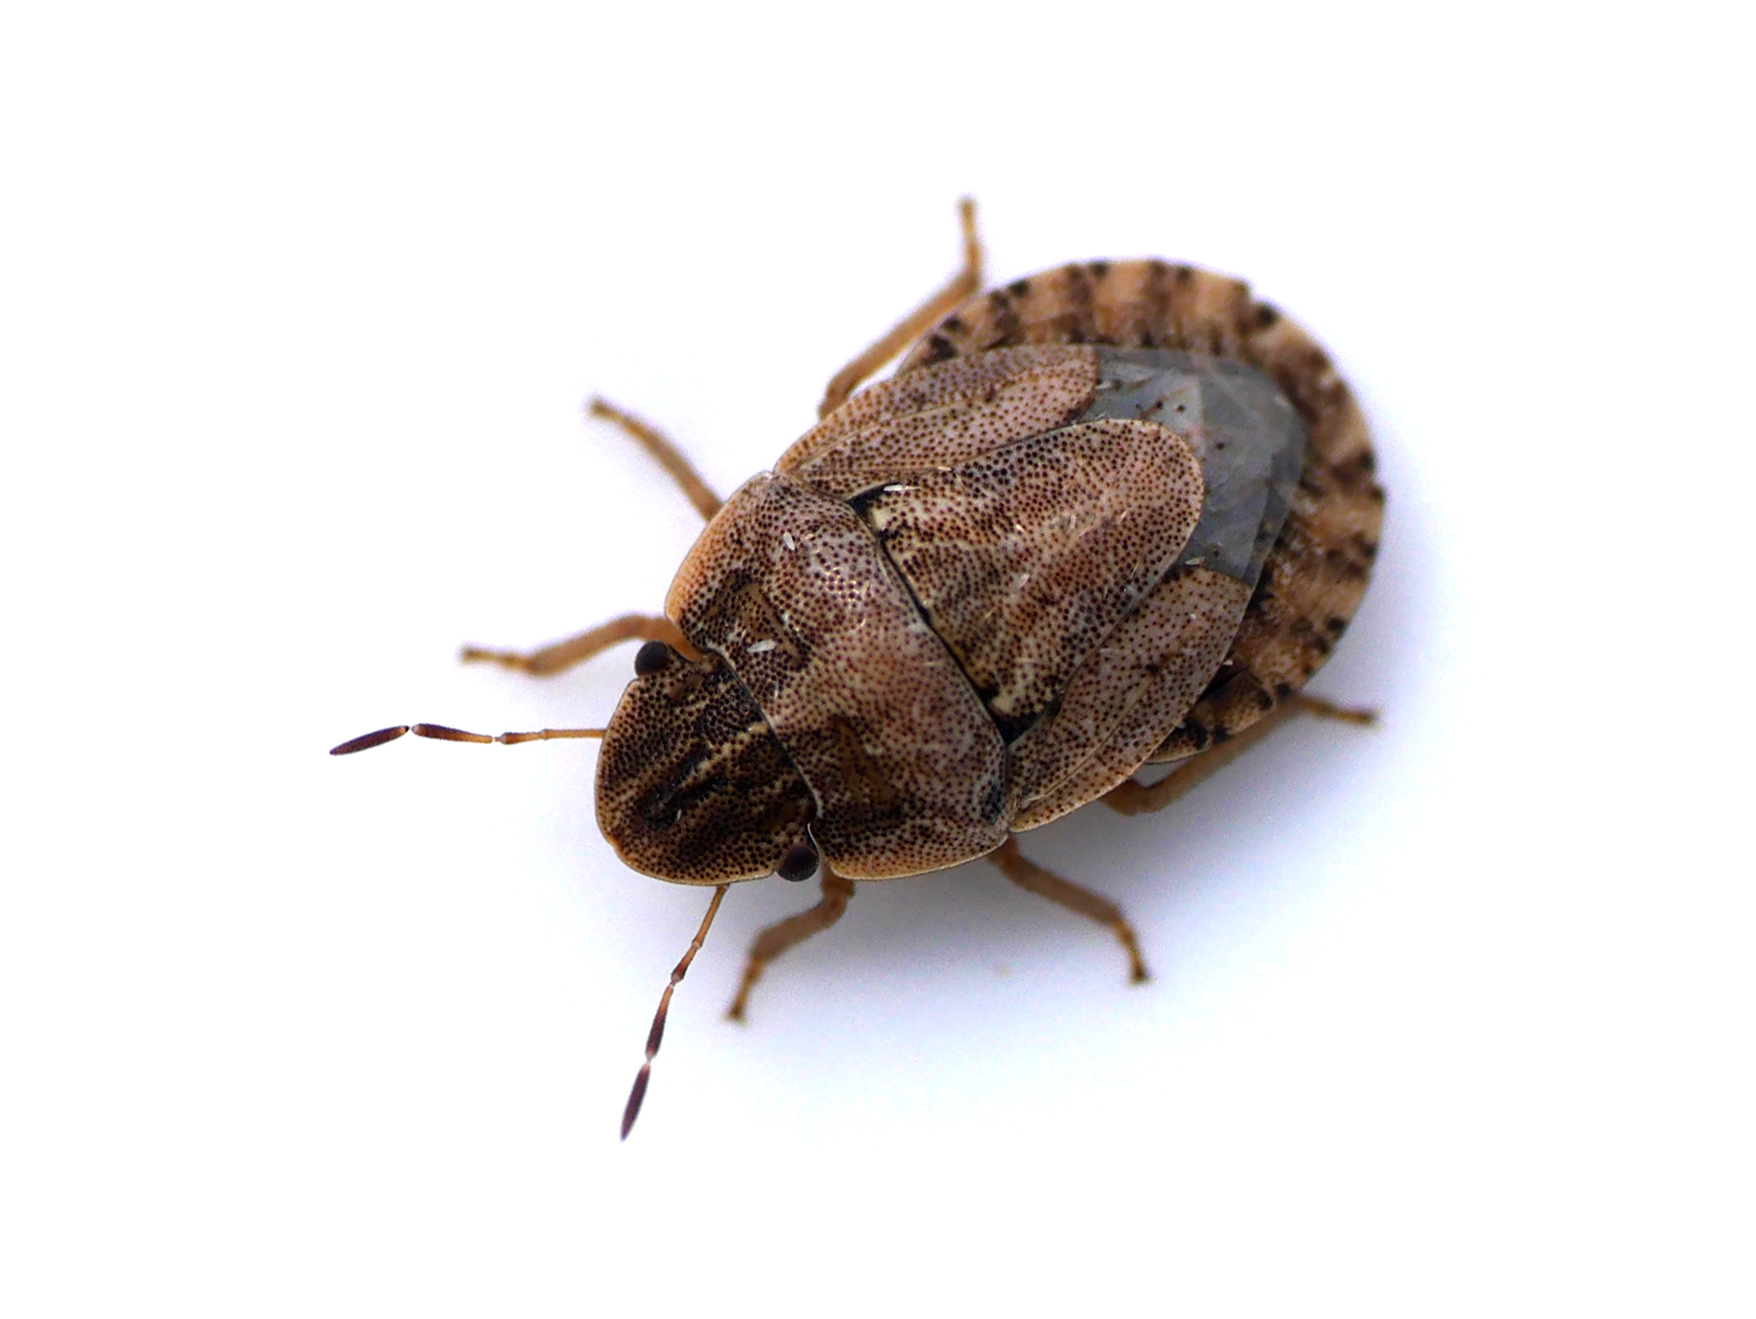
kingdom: Animalia
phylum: Arthropoda
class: Insecta
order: Hemiptera
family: Pentatomidae
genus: Sciocoris
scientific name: Sciocoris cursitans
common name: Sandrunner
